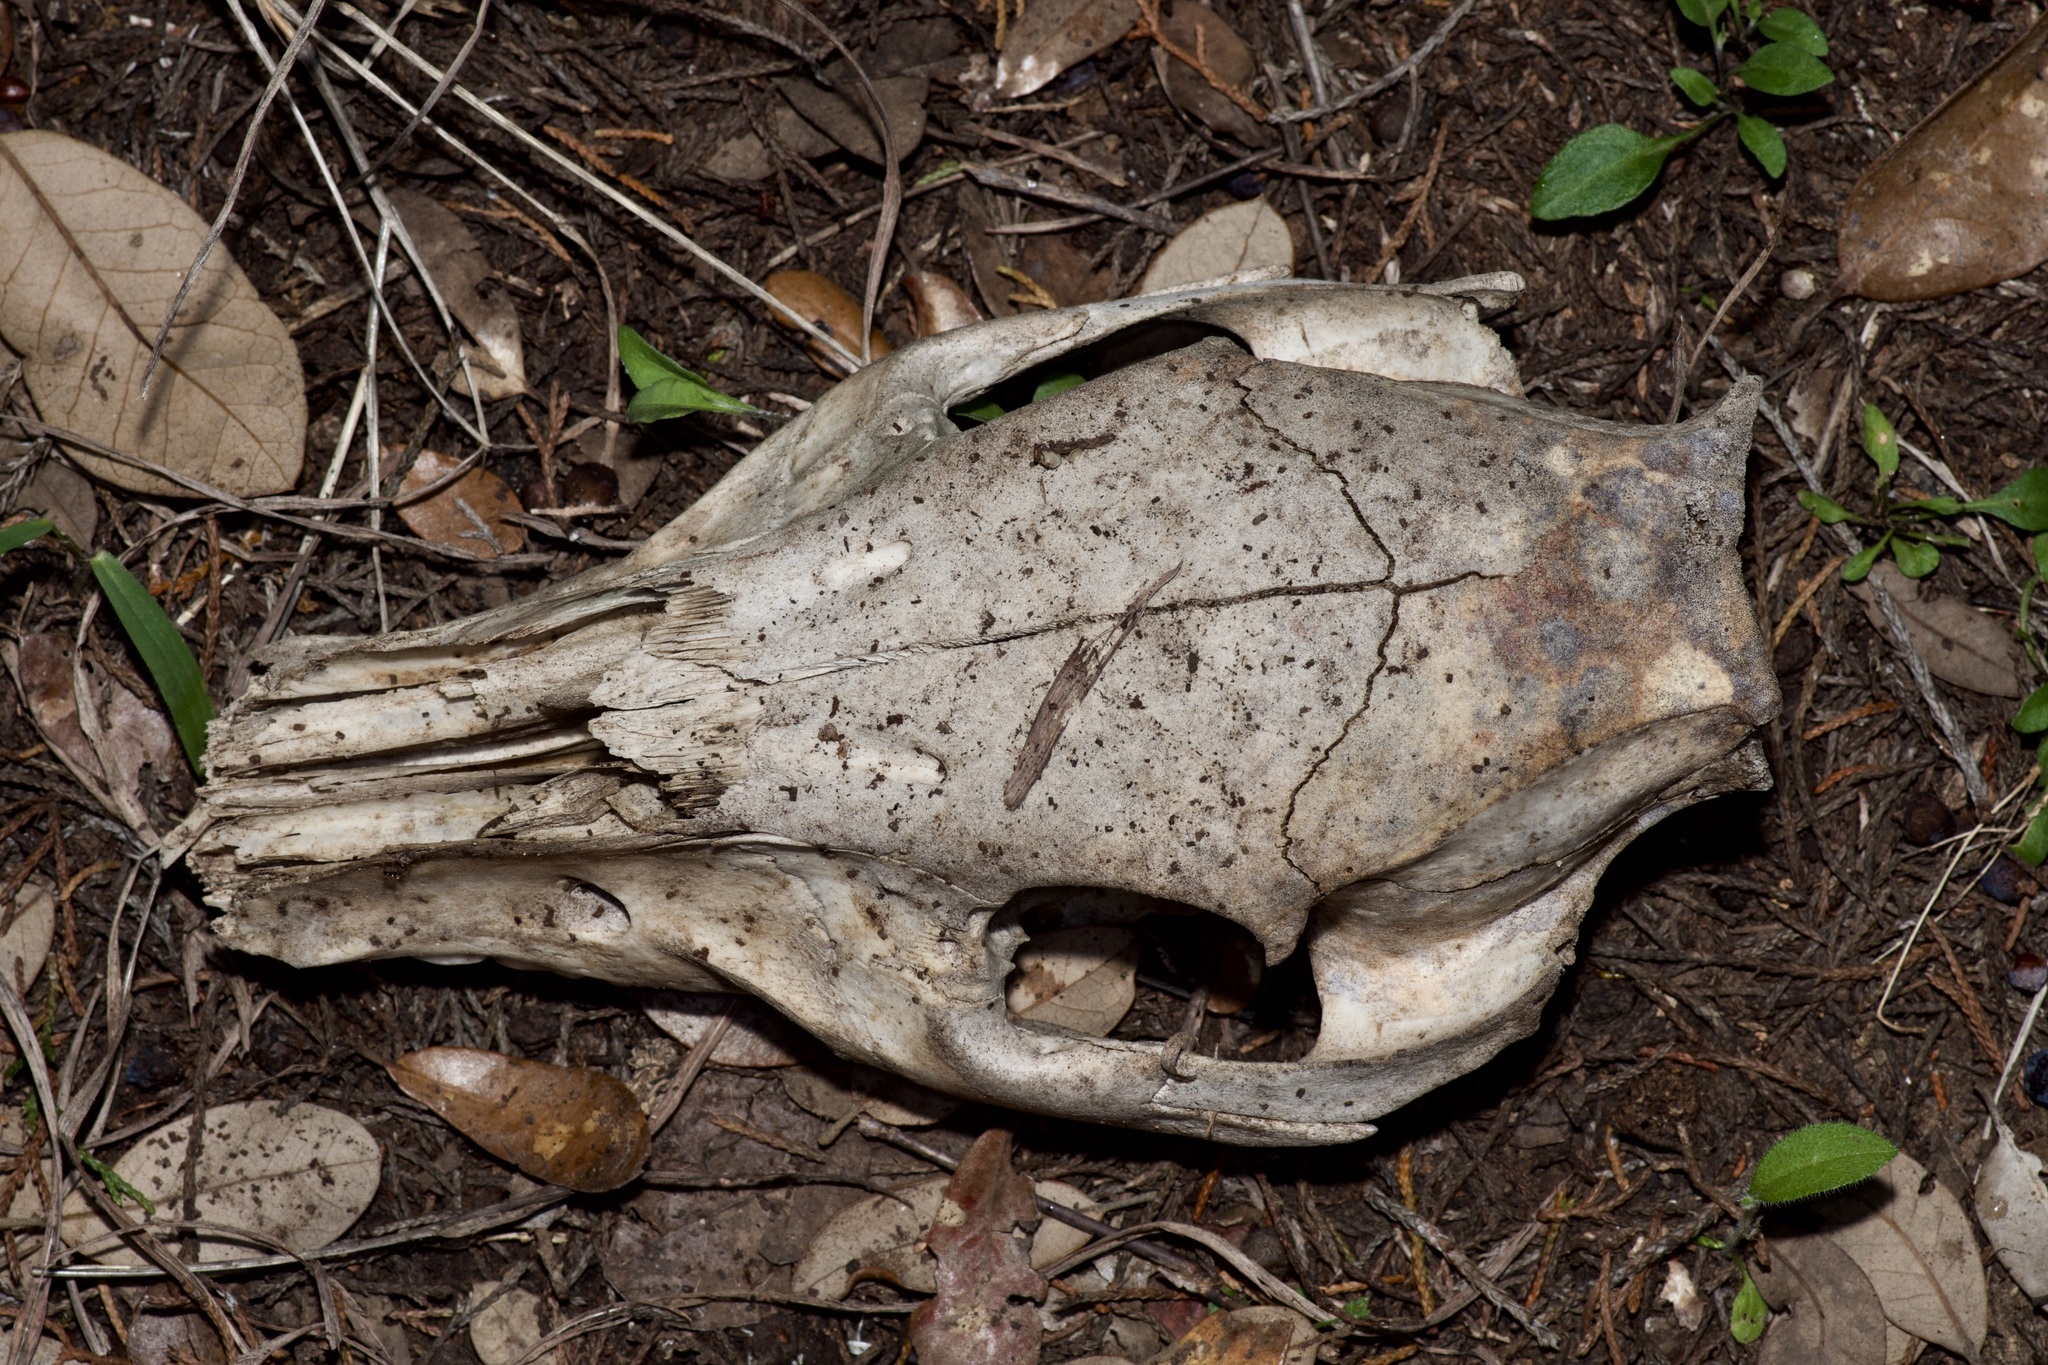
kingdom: Animalia
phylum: Chordata
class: Mammalia
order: Artiodactyla
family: Suidae
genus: Sus
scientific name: Sus scrofa
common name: Wild boar
